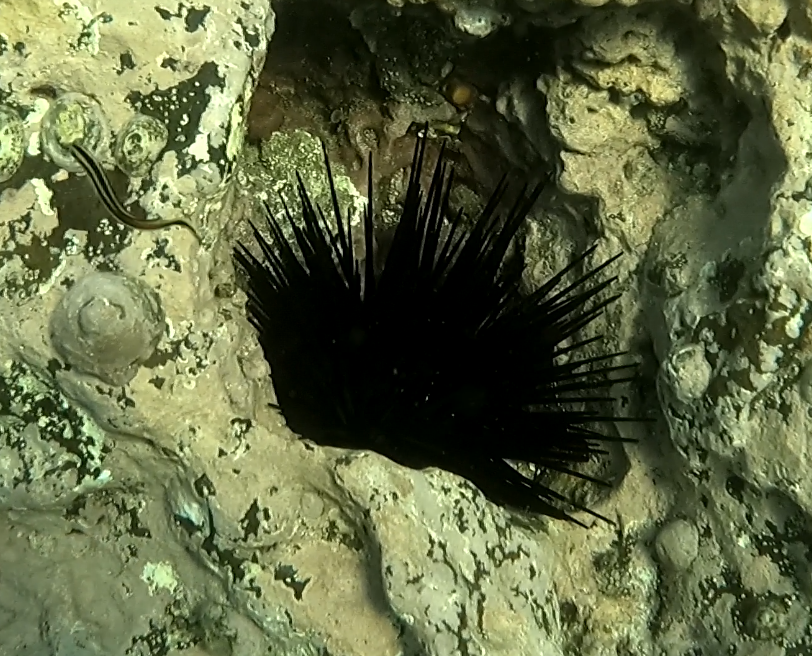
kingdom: Animalia
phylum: Echinodermata
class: Echinoidea
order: Diadematoida
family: Diadematidae
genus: Centrostephanus
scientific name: Centrostephanus rodgersii
